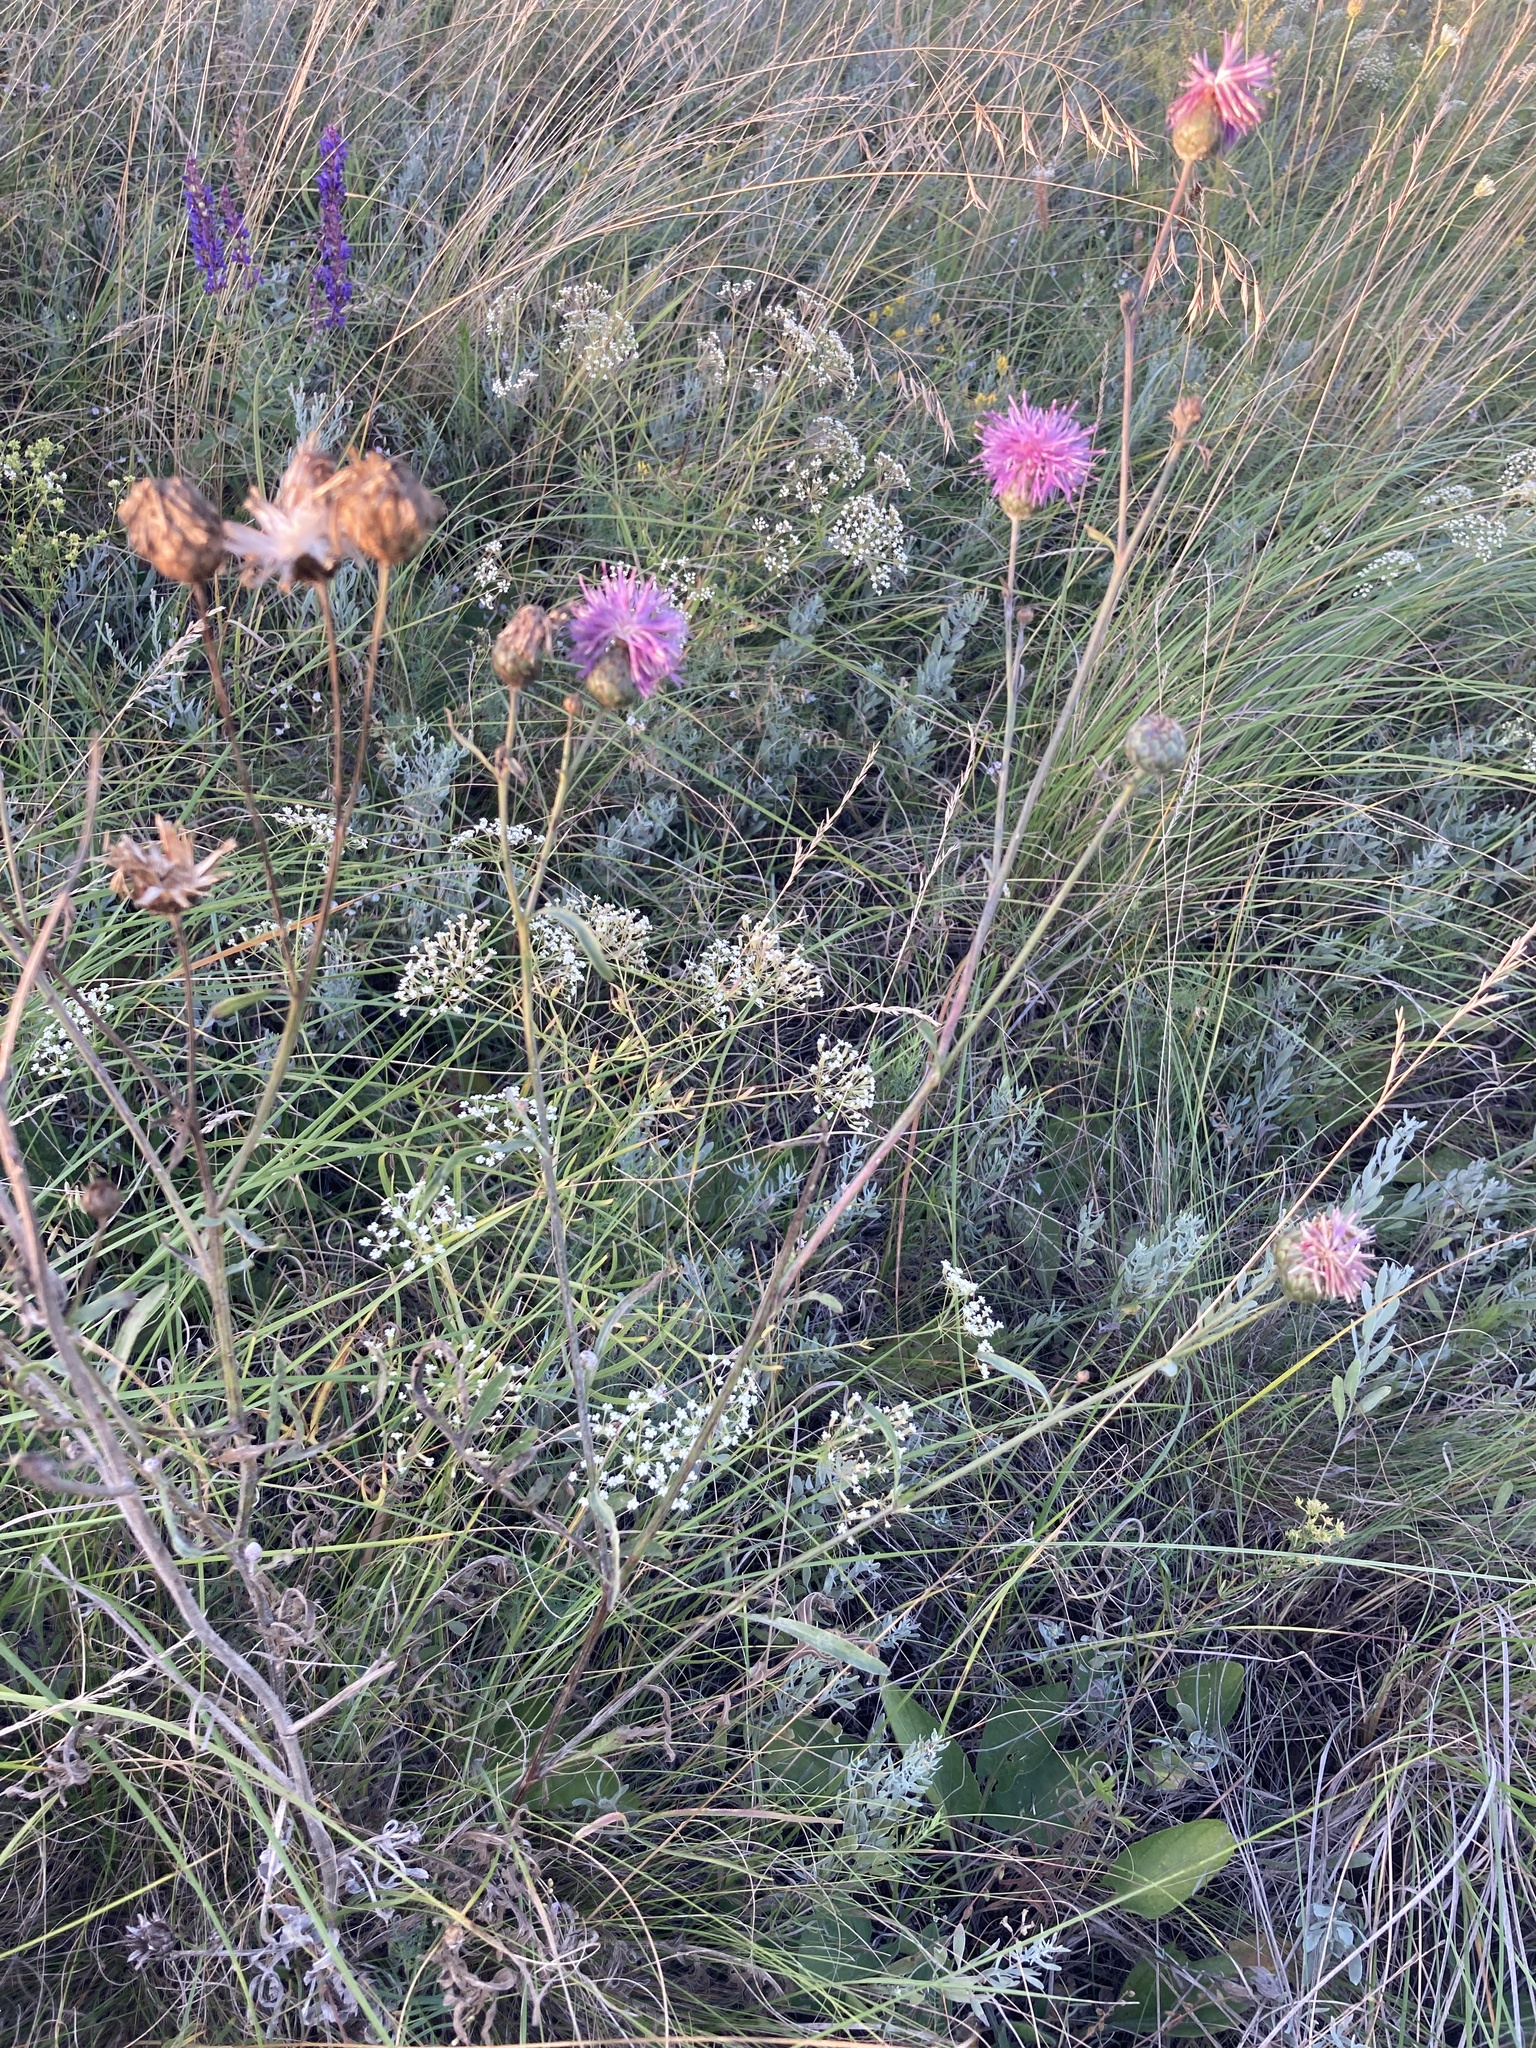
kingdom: Plantae
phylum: Tracheophyta
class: Magnoliopsida
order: Asterales
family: Asteraceae
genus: Centaurea
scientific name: Centaurea scabiosa
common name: Greater knapweed
